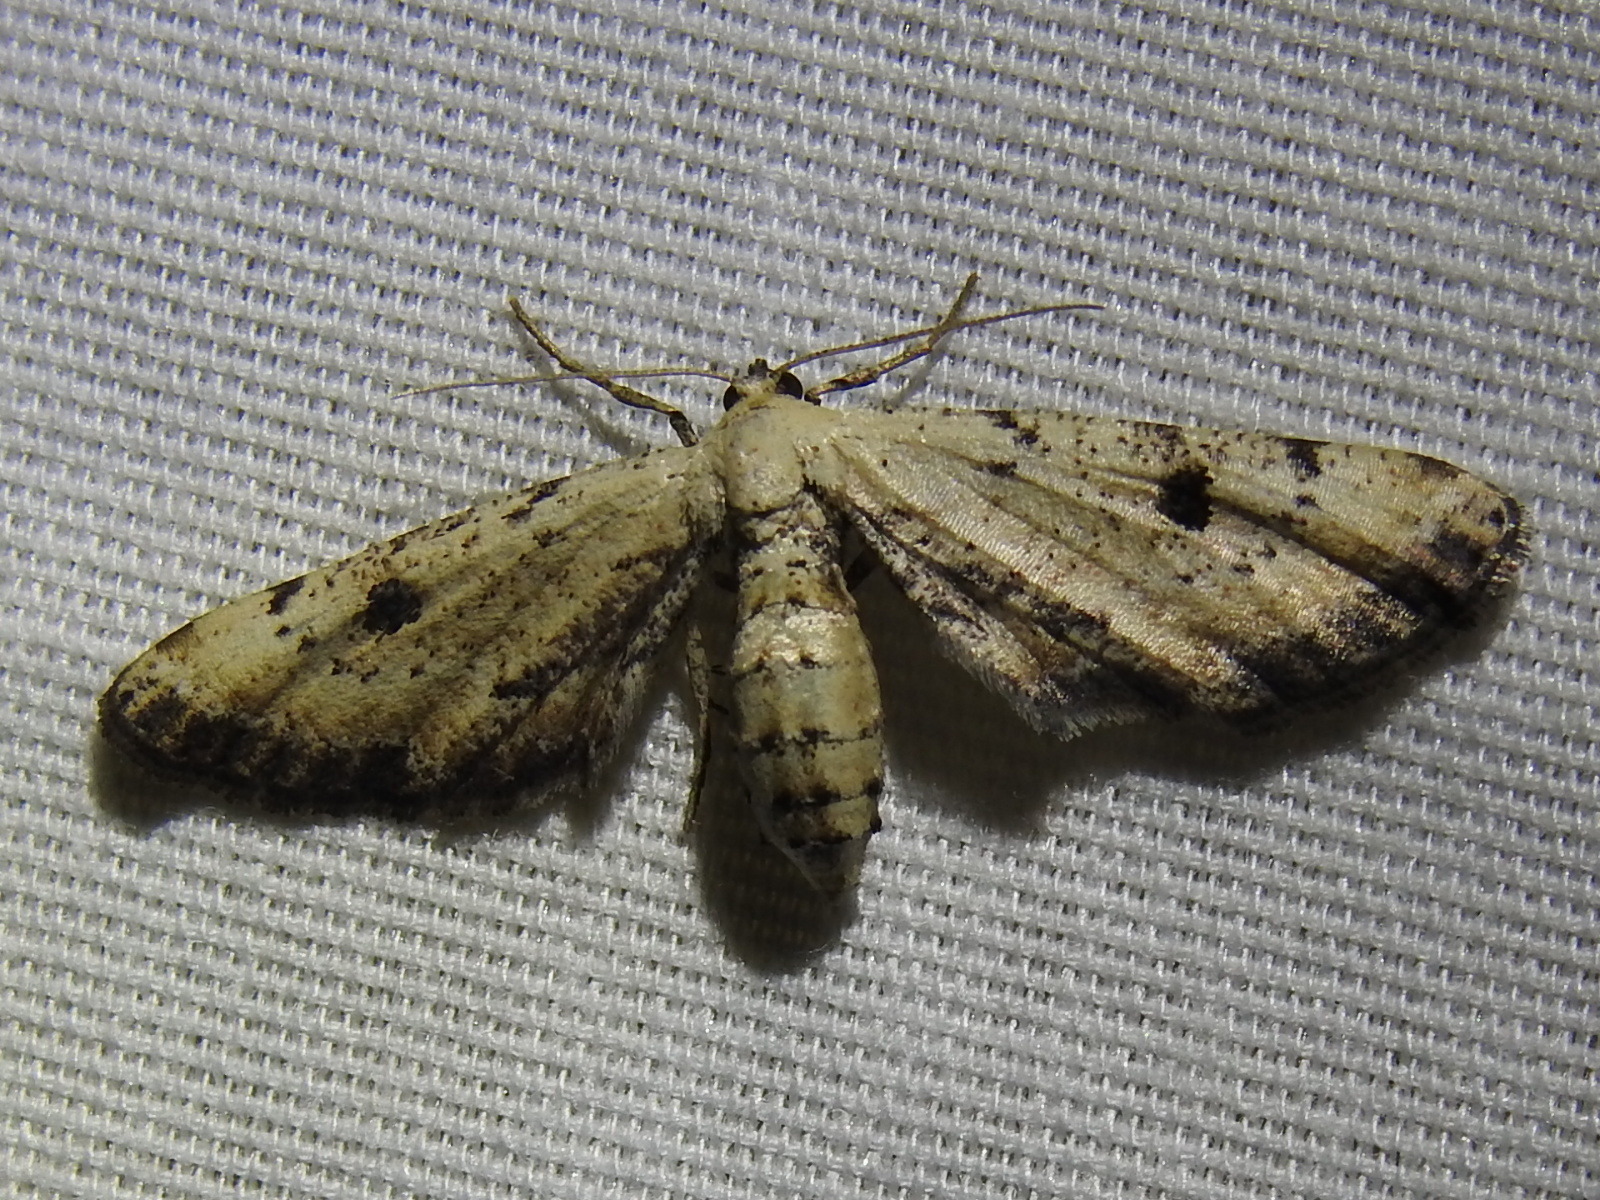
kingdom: Animalia
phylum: Arthropoda
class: Insecta
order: Lepidoptera
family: Geometridae
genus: Tornos
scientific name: Tornos scolopacinaria
